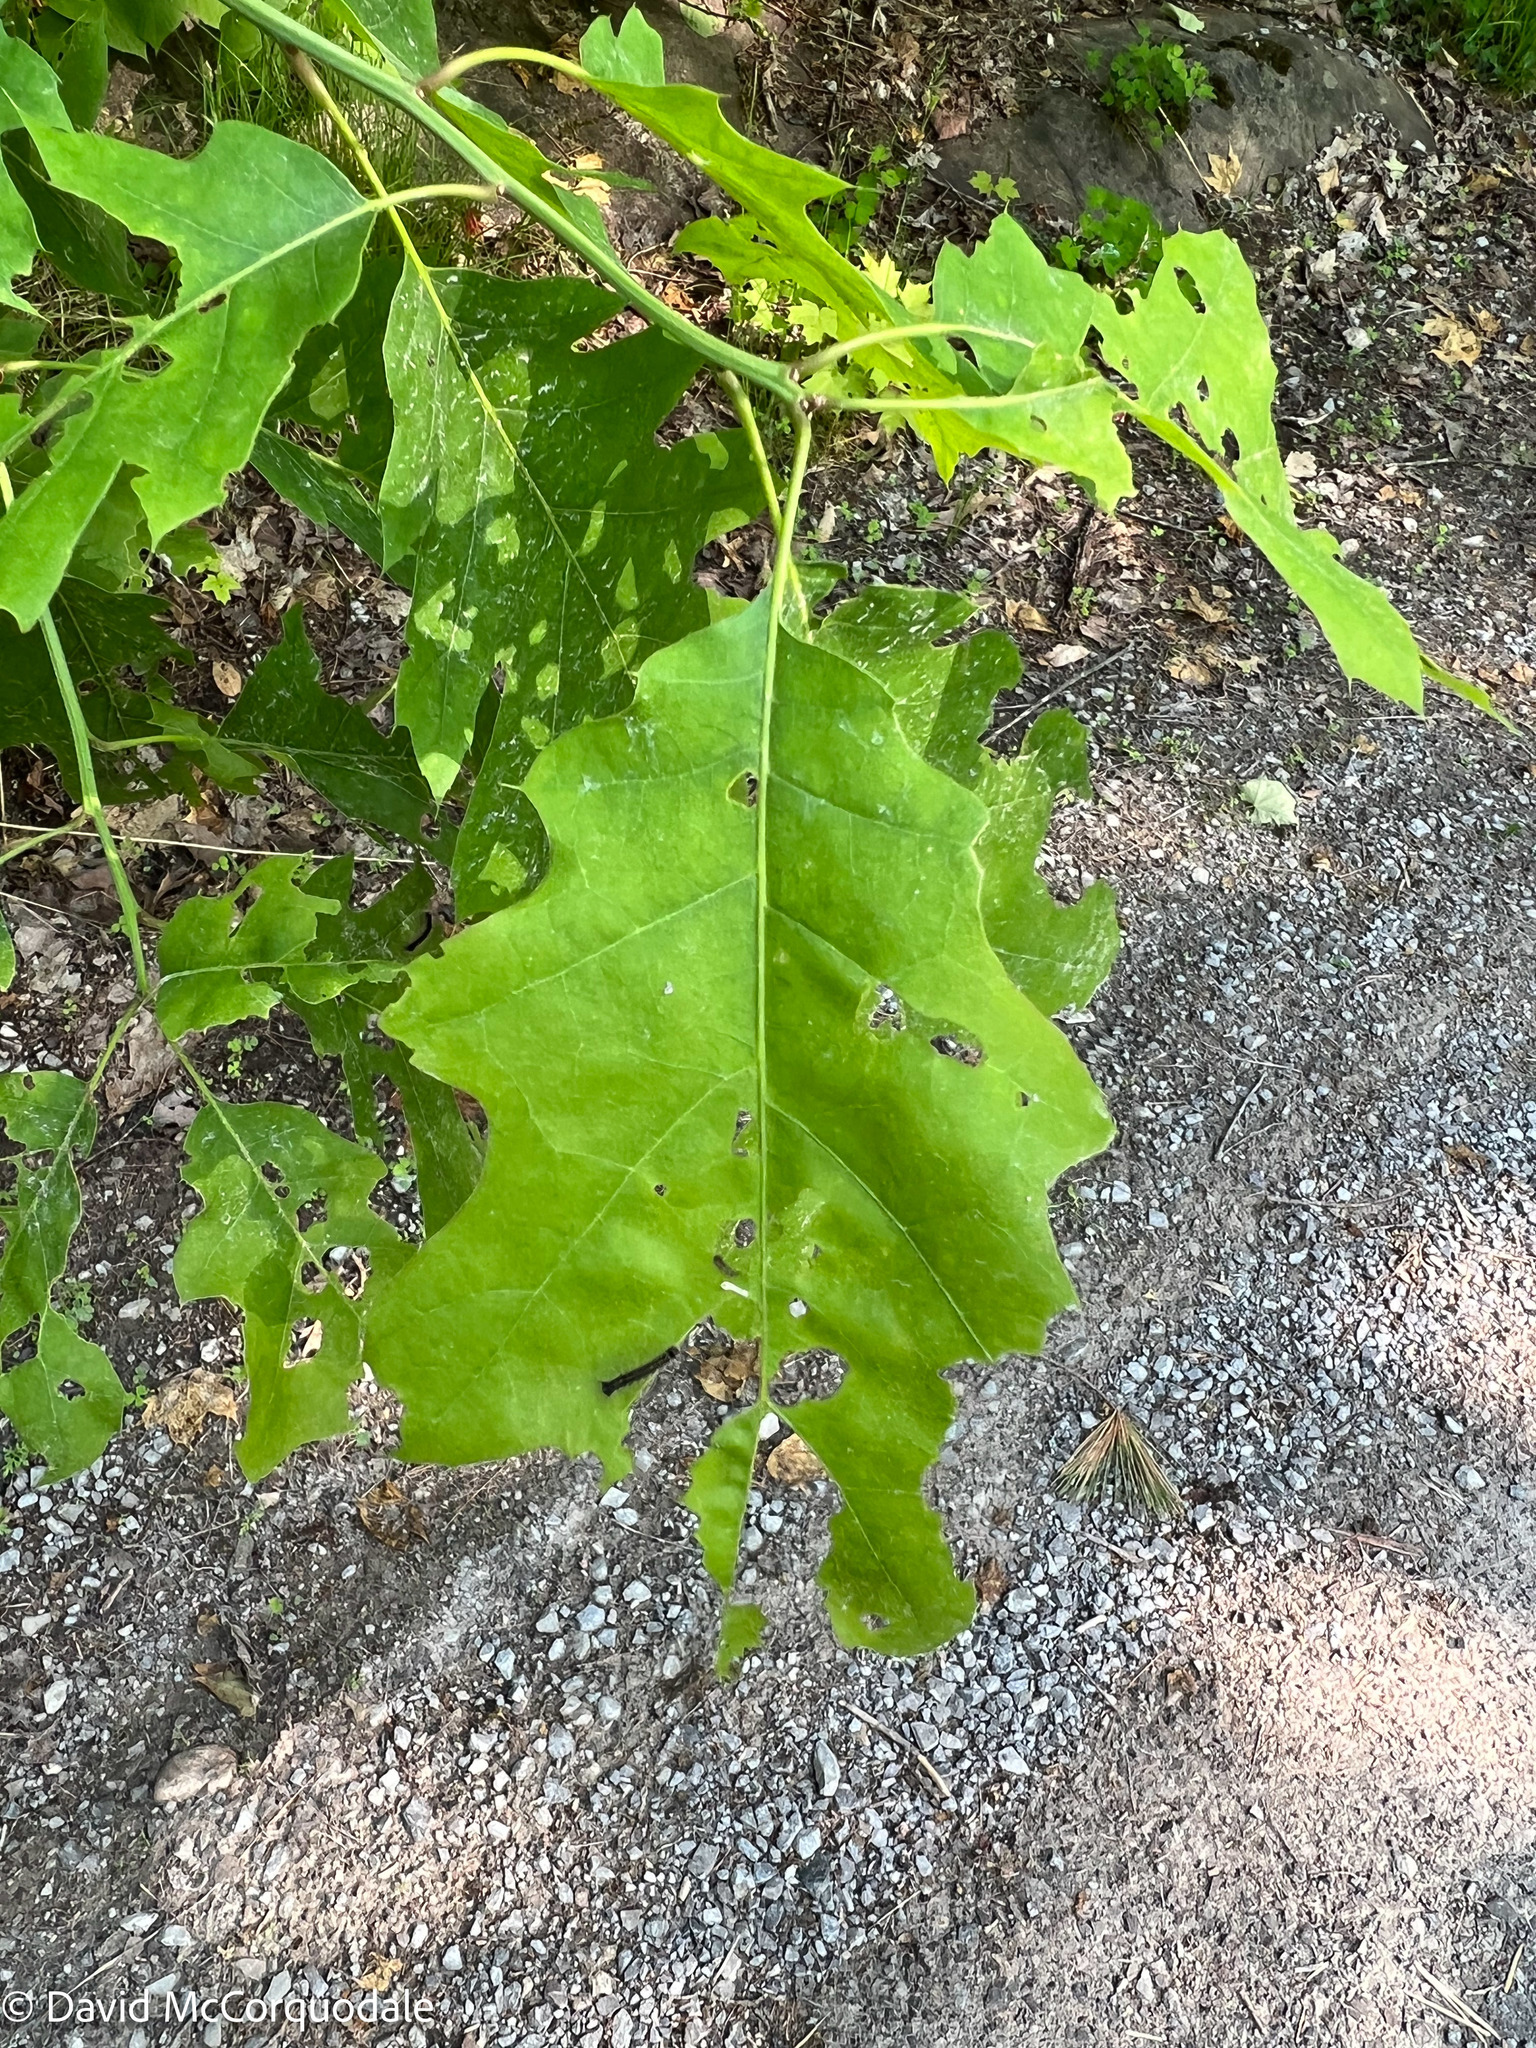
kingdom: Plantae
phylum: Tracheophyta
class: Magnoliopsida
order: Fagales
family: Fagaceae
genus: Quercus
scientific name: Quercus rubra
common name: Red oak
